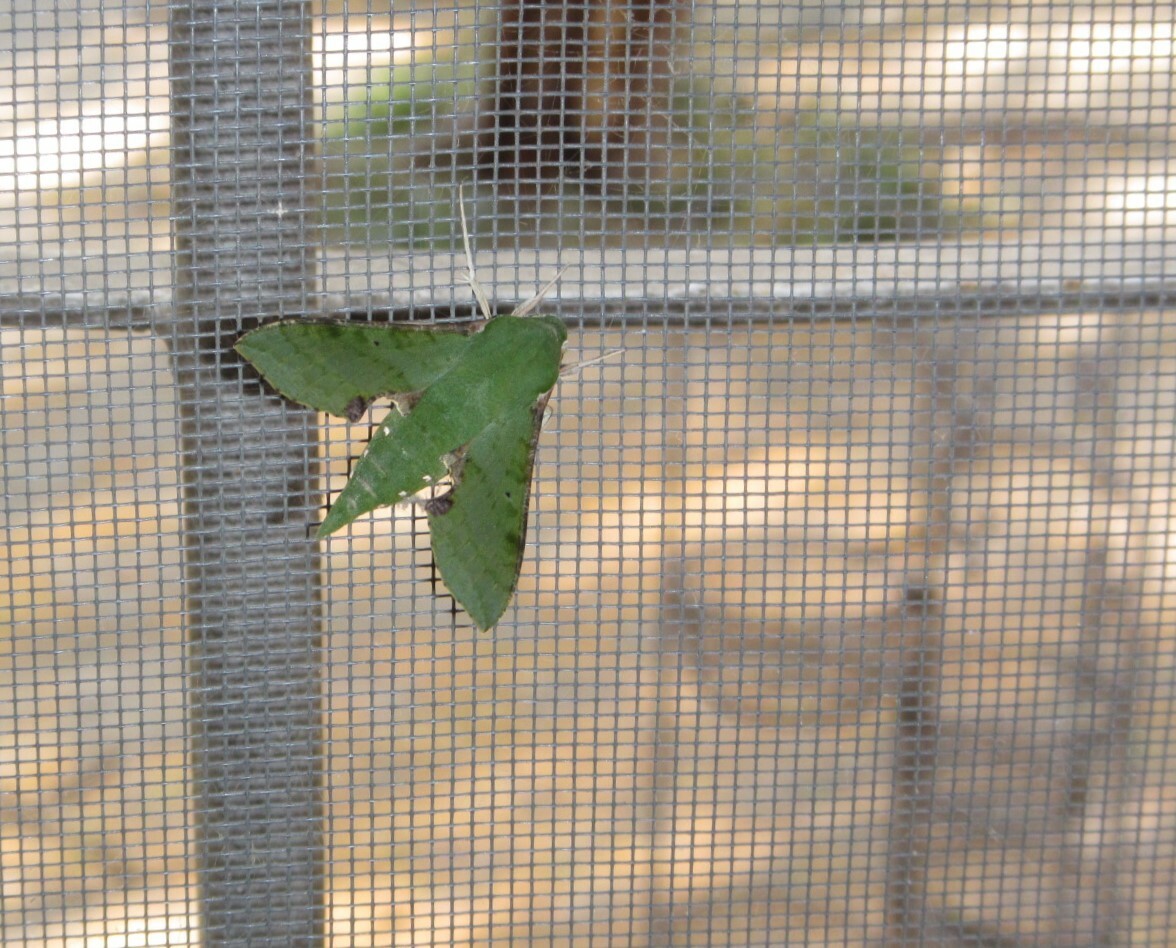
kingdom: Animalia
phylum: Arthropoda
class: Insecta
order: Lepidoptera
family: Sphingidae
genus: Basiothia
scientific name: Basiothia medea
